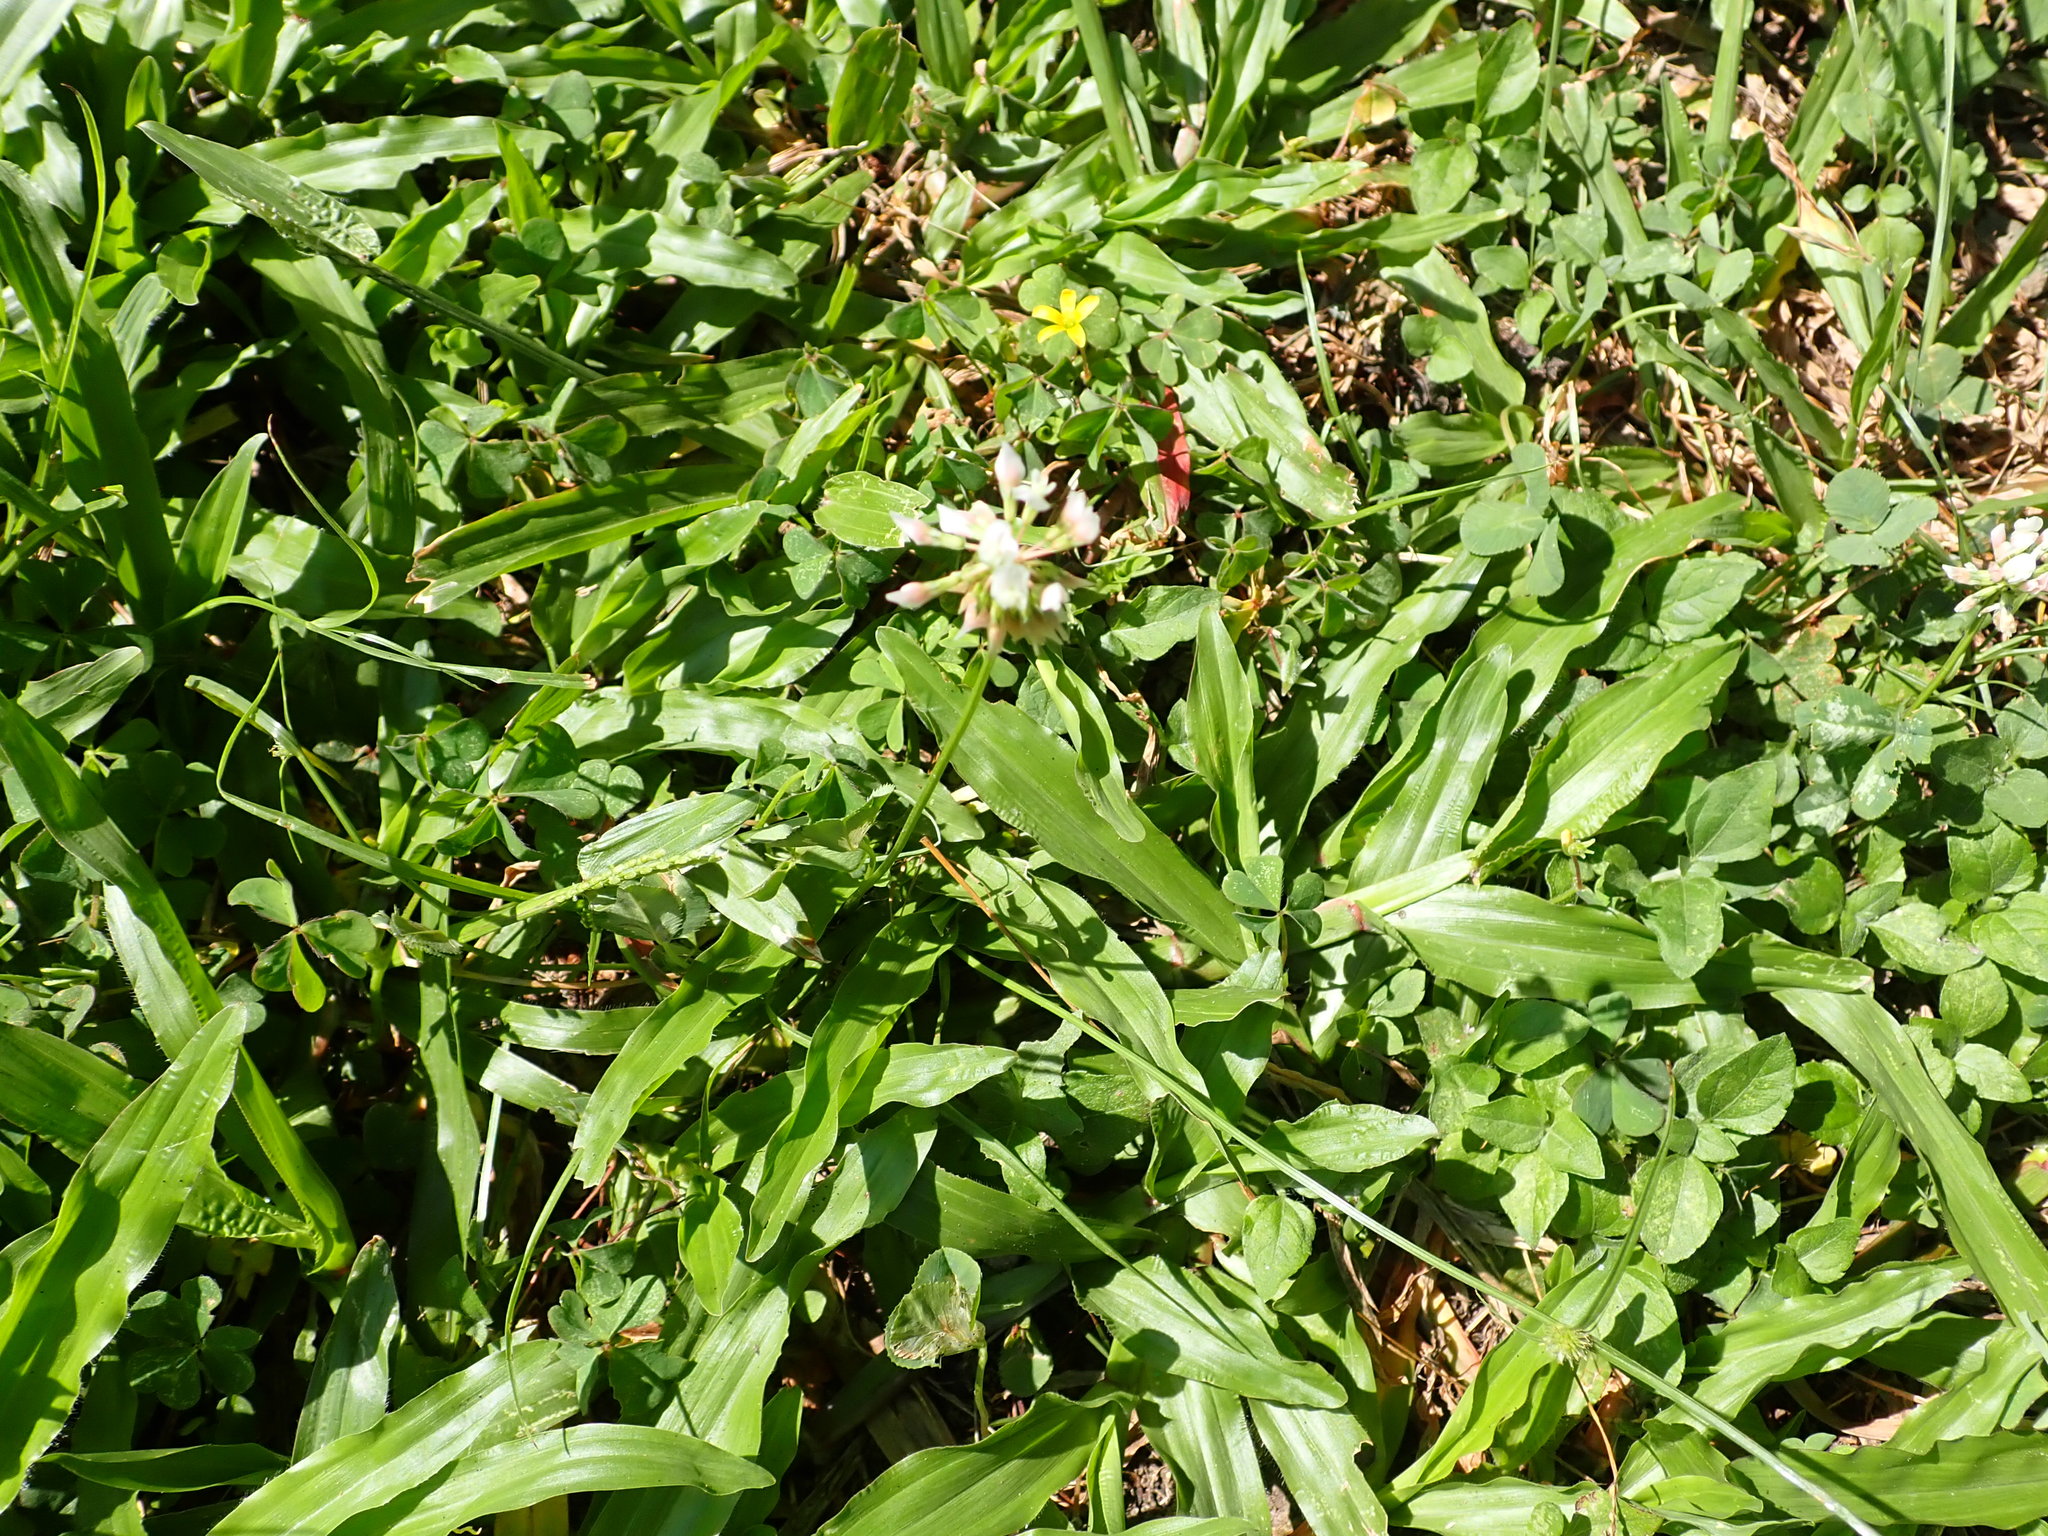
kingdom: Plantae
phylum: Tracheophyta
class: Magnoliopsida
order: Fabales
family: Fabaceae
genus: Trifolium
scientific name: Trifolium repens
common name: White clover
